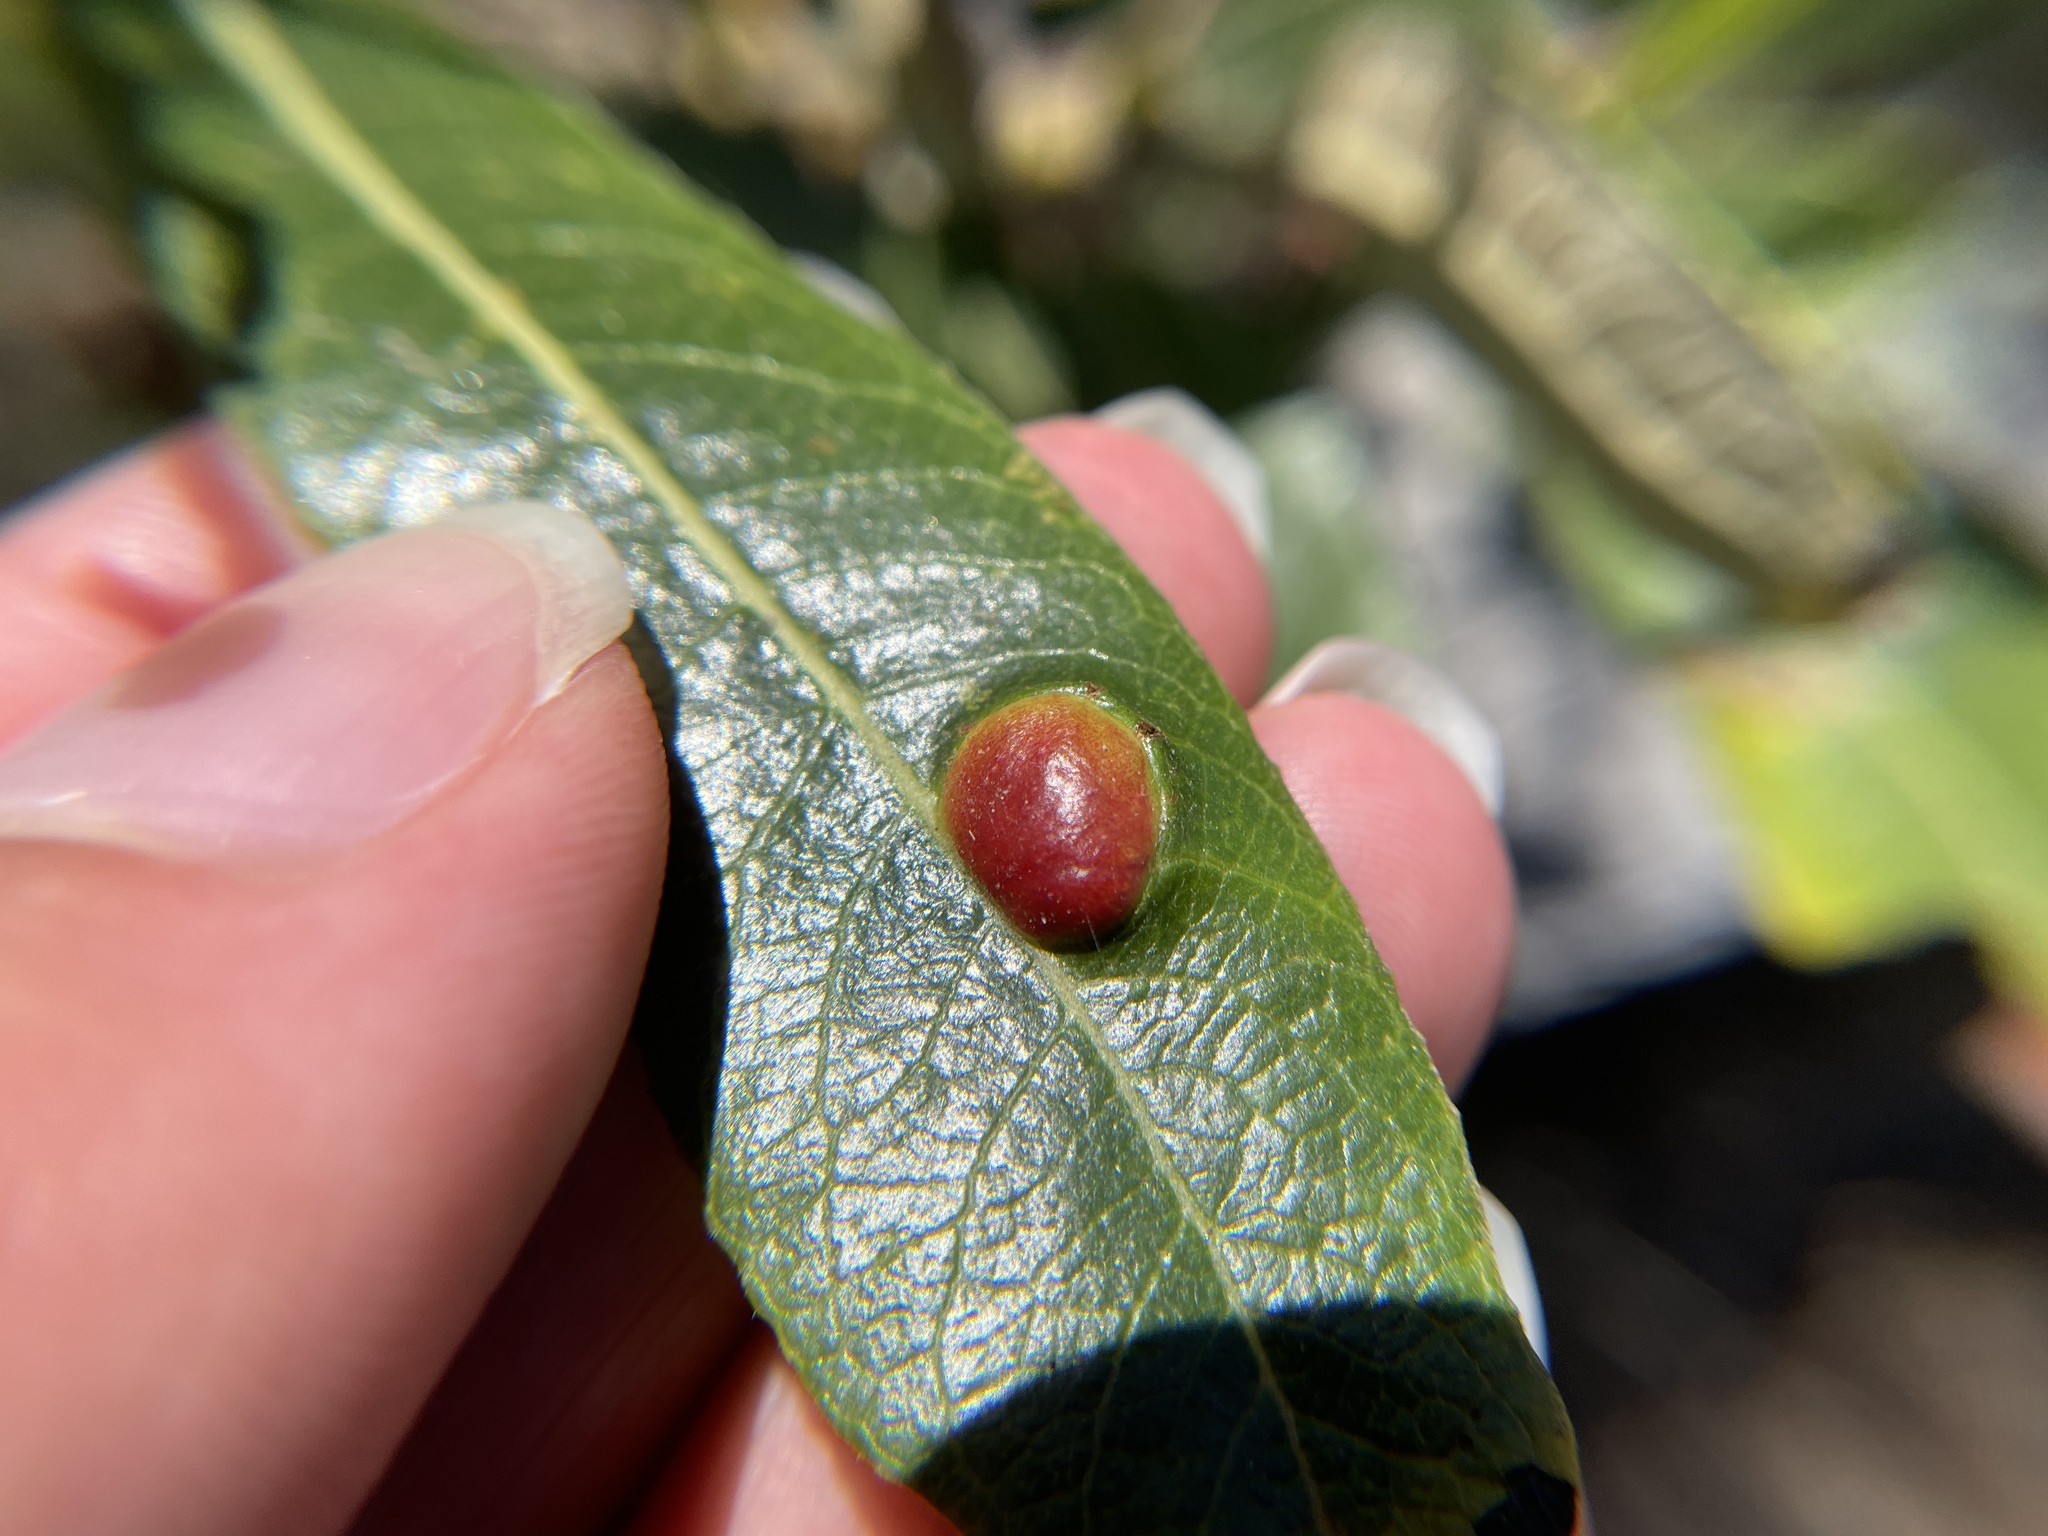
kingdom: Animalia
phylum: Arthropoda
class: Insecta
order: Hymenoptera
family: Tenthredinidae
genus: Euura
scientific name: Euura
